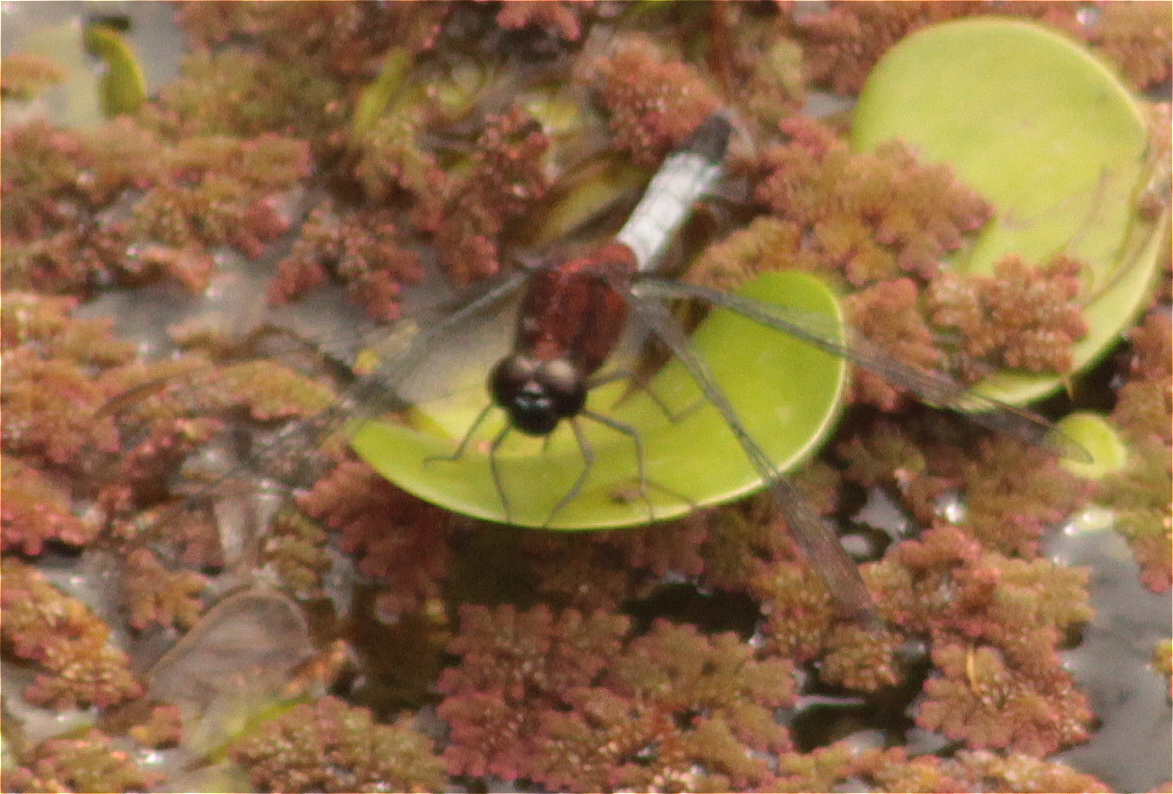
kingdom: Animalia
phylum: Arthropoda
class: Insecta
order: Odonata
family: Libellulidae
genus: Erythrodiplax
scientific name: Erythrodiplax abjecta
